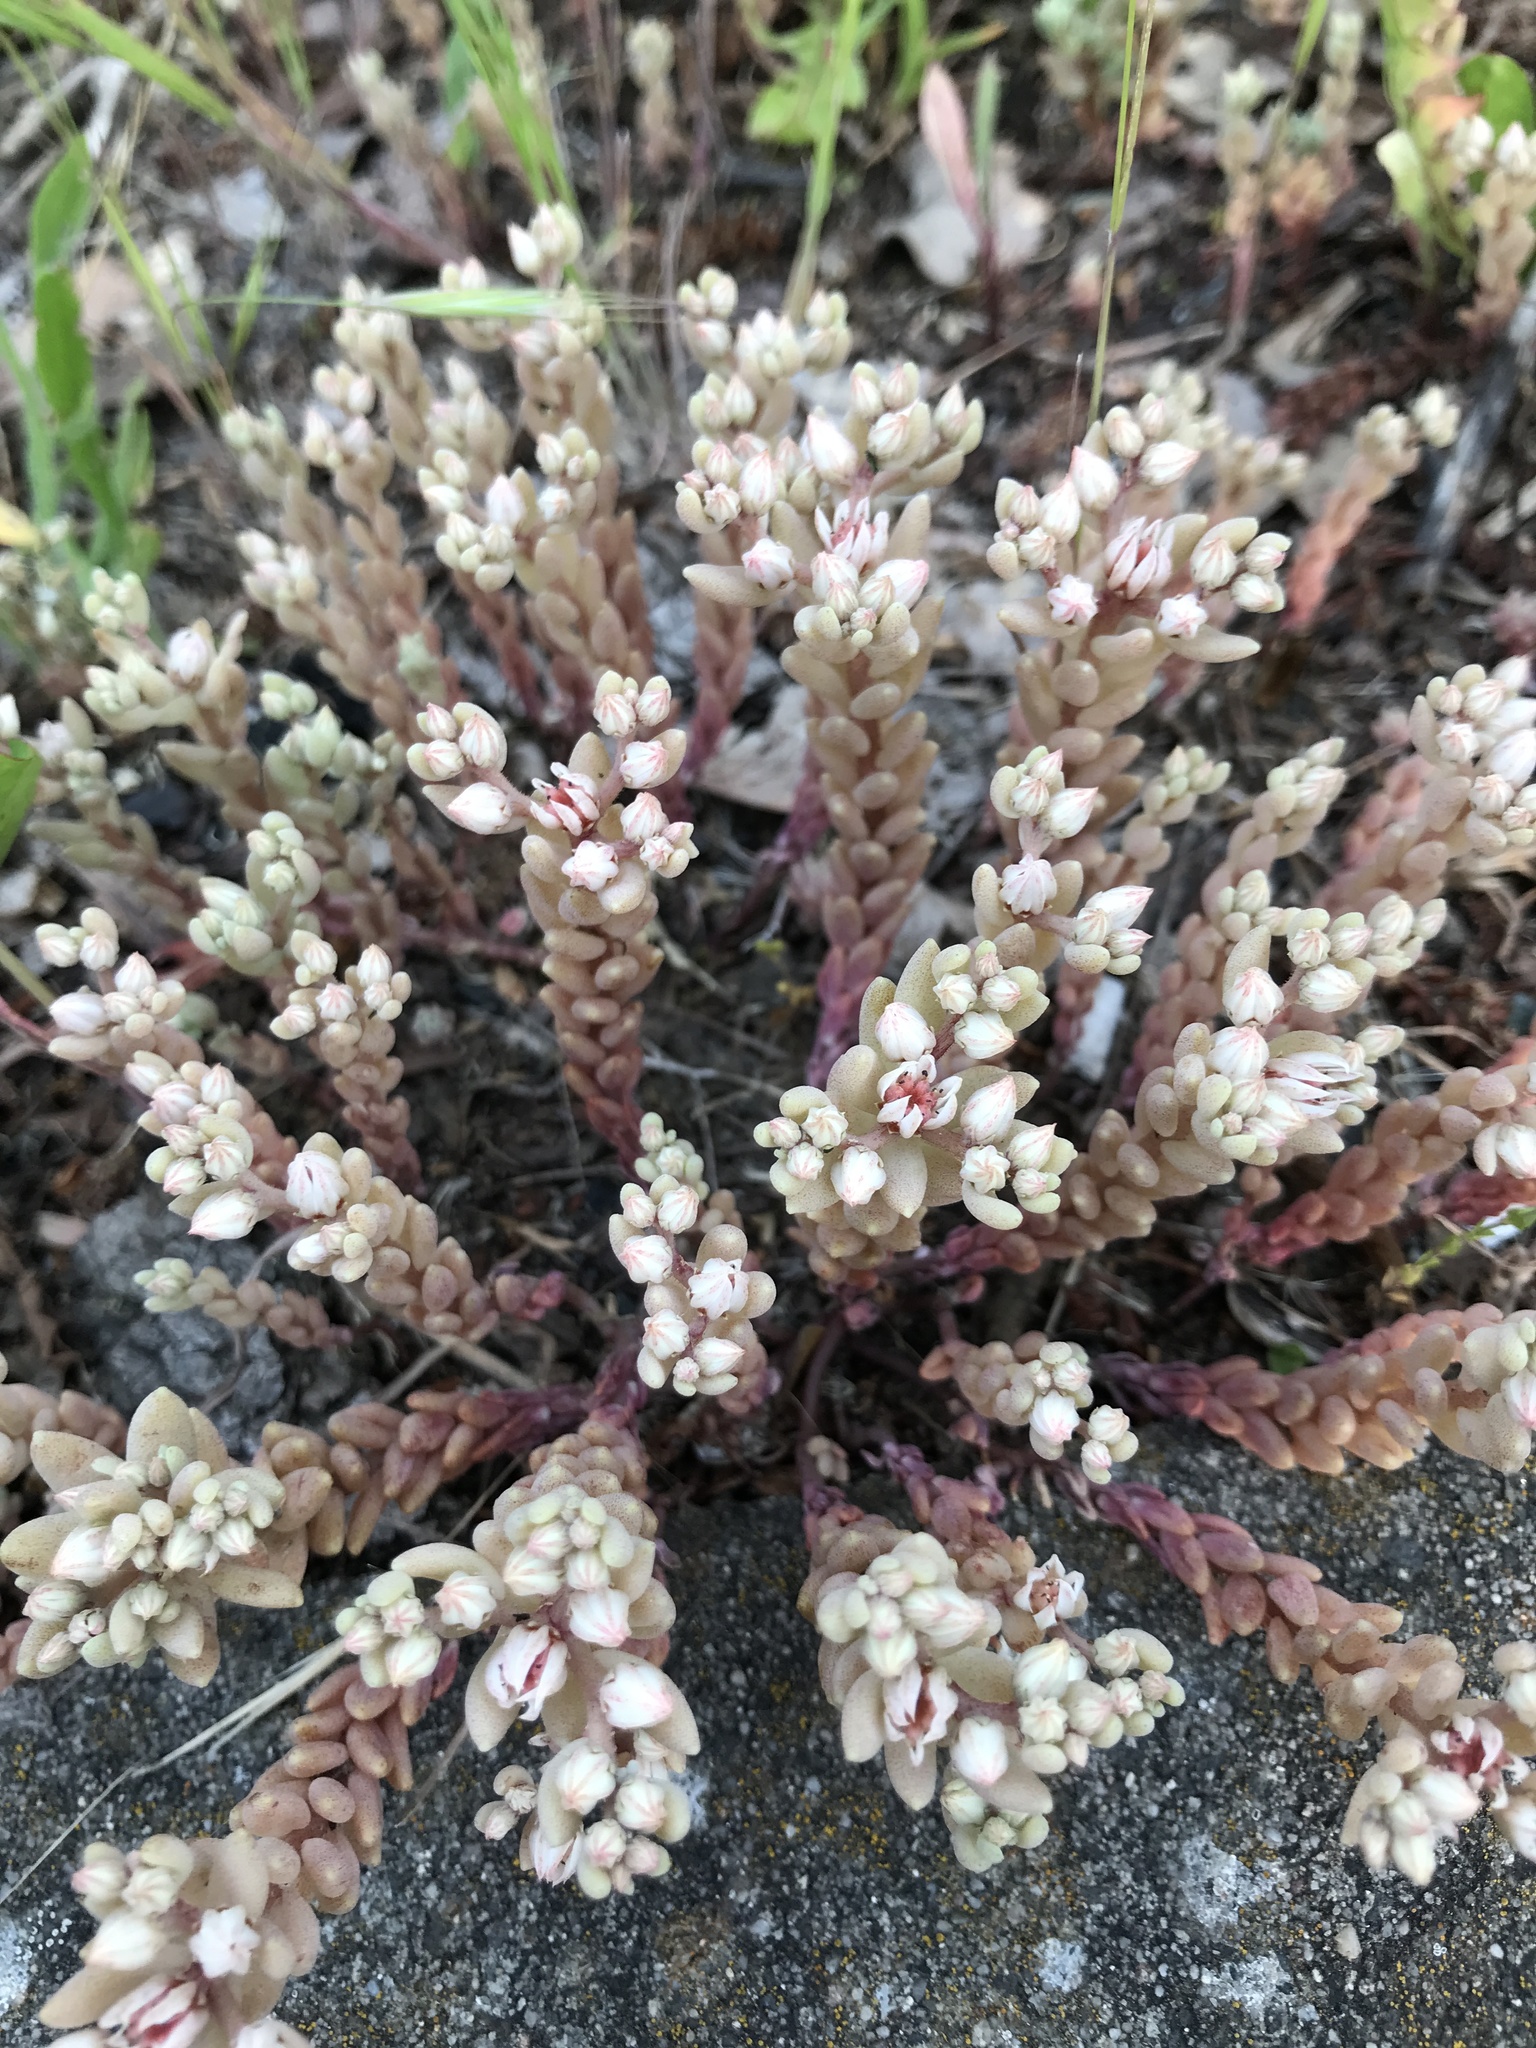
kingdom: Plantae
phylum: Tracheophyta
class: Magnoliopsida
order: Saxifragales
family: Crassulaceae
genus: Sedum
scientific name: Sedum hispanicum
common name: Spanish stonecrop
